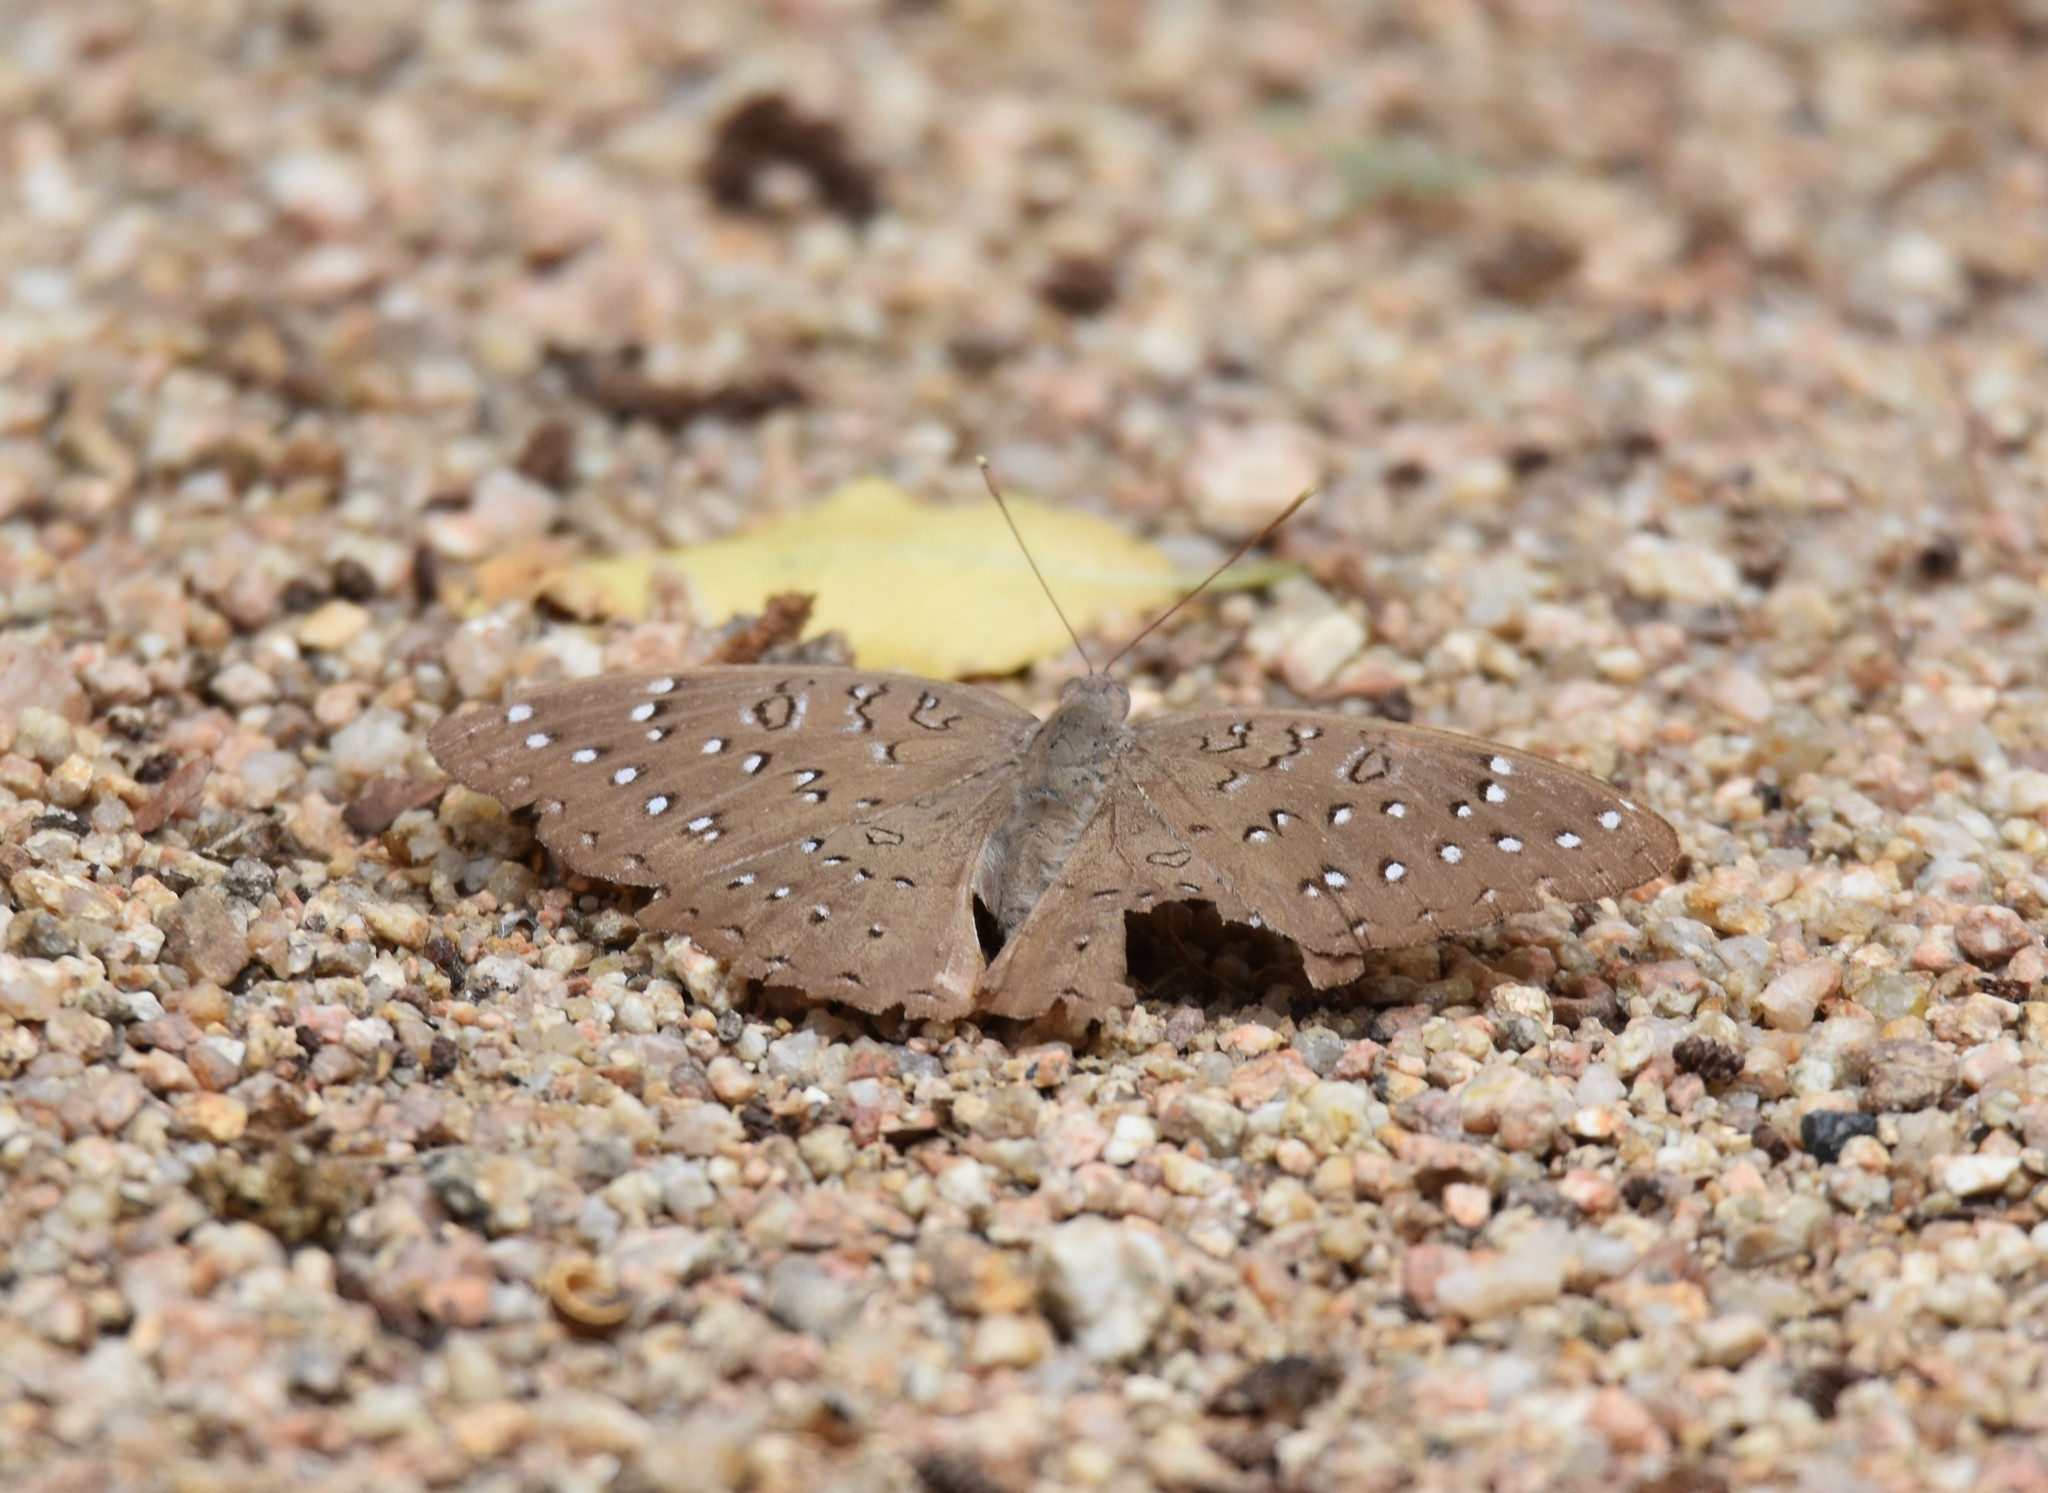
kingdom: Animalia
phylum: Arthropoda
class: Insecta
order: Lepidoptera
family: Nymphalidae
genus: Hamanumida
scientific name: Hamanumida daedalus
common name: Guinea-fowl butterfly
